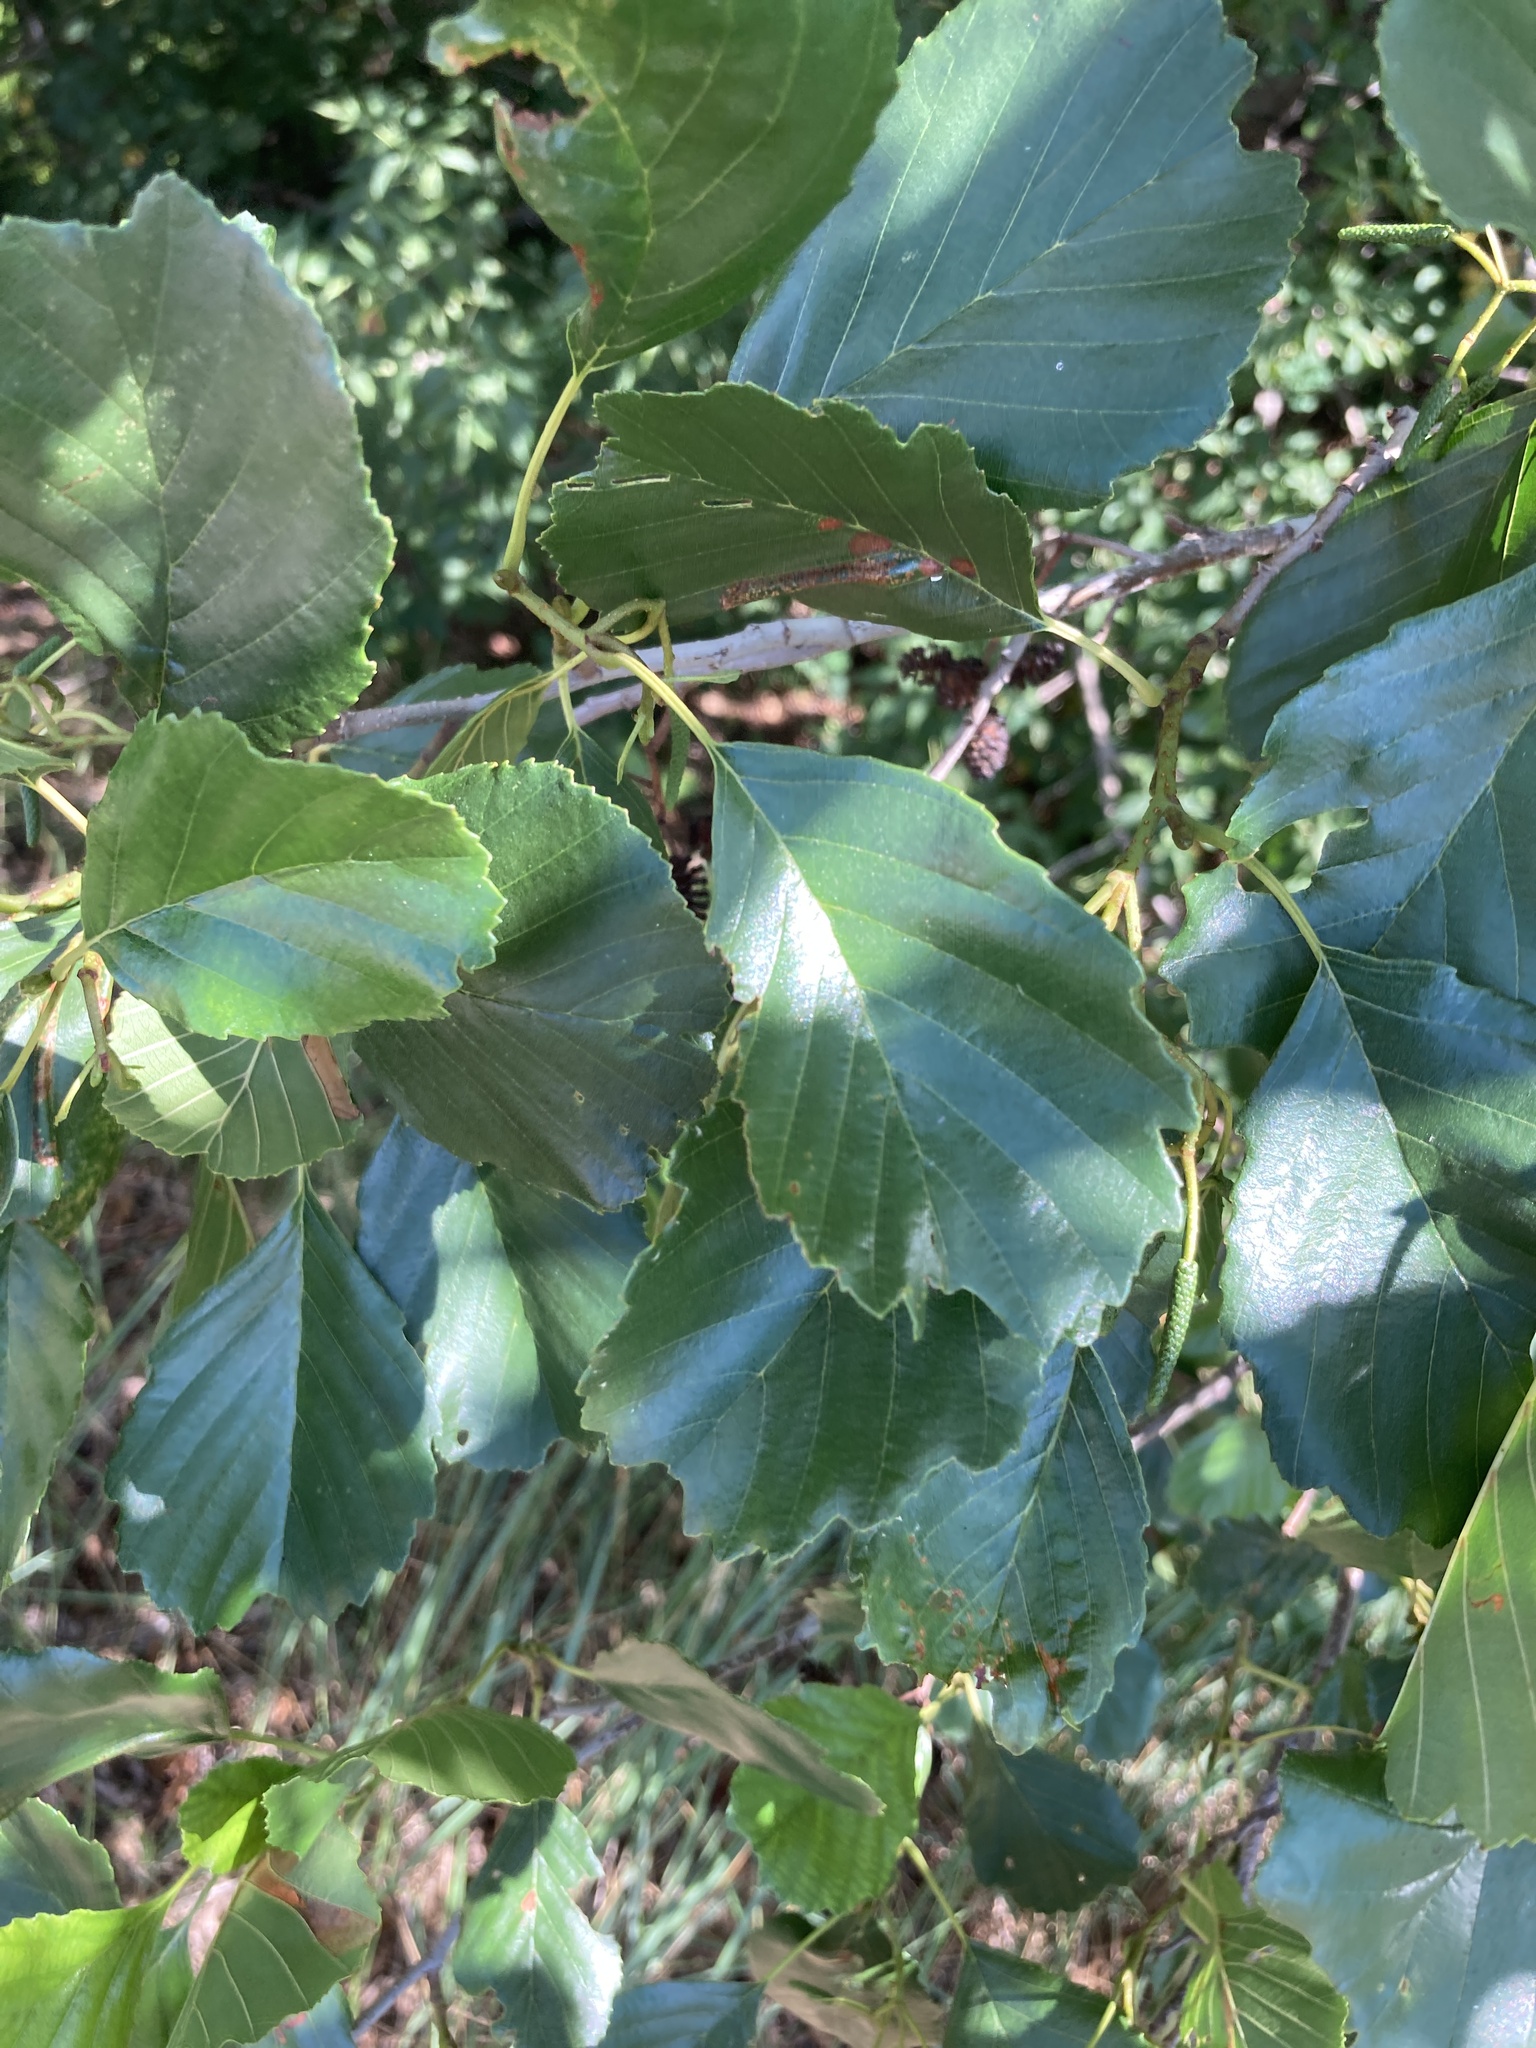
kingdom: Plantae
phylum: Tracheophyta
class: Magnoliopsida
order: Fagales
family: Betulaceae
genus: Alnus
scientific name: Alnus glutinosa
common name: Black alder
